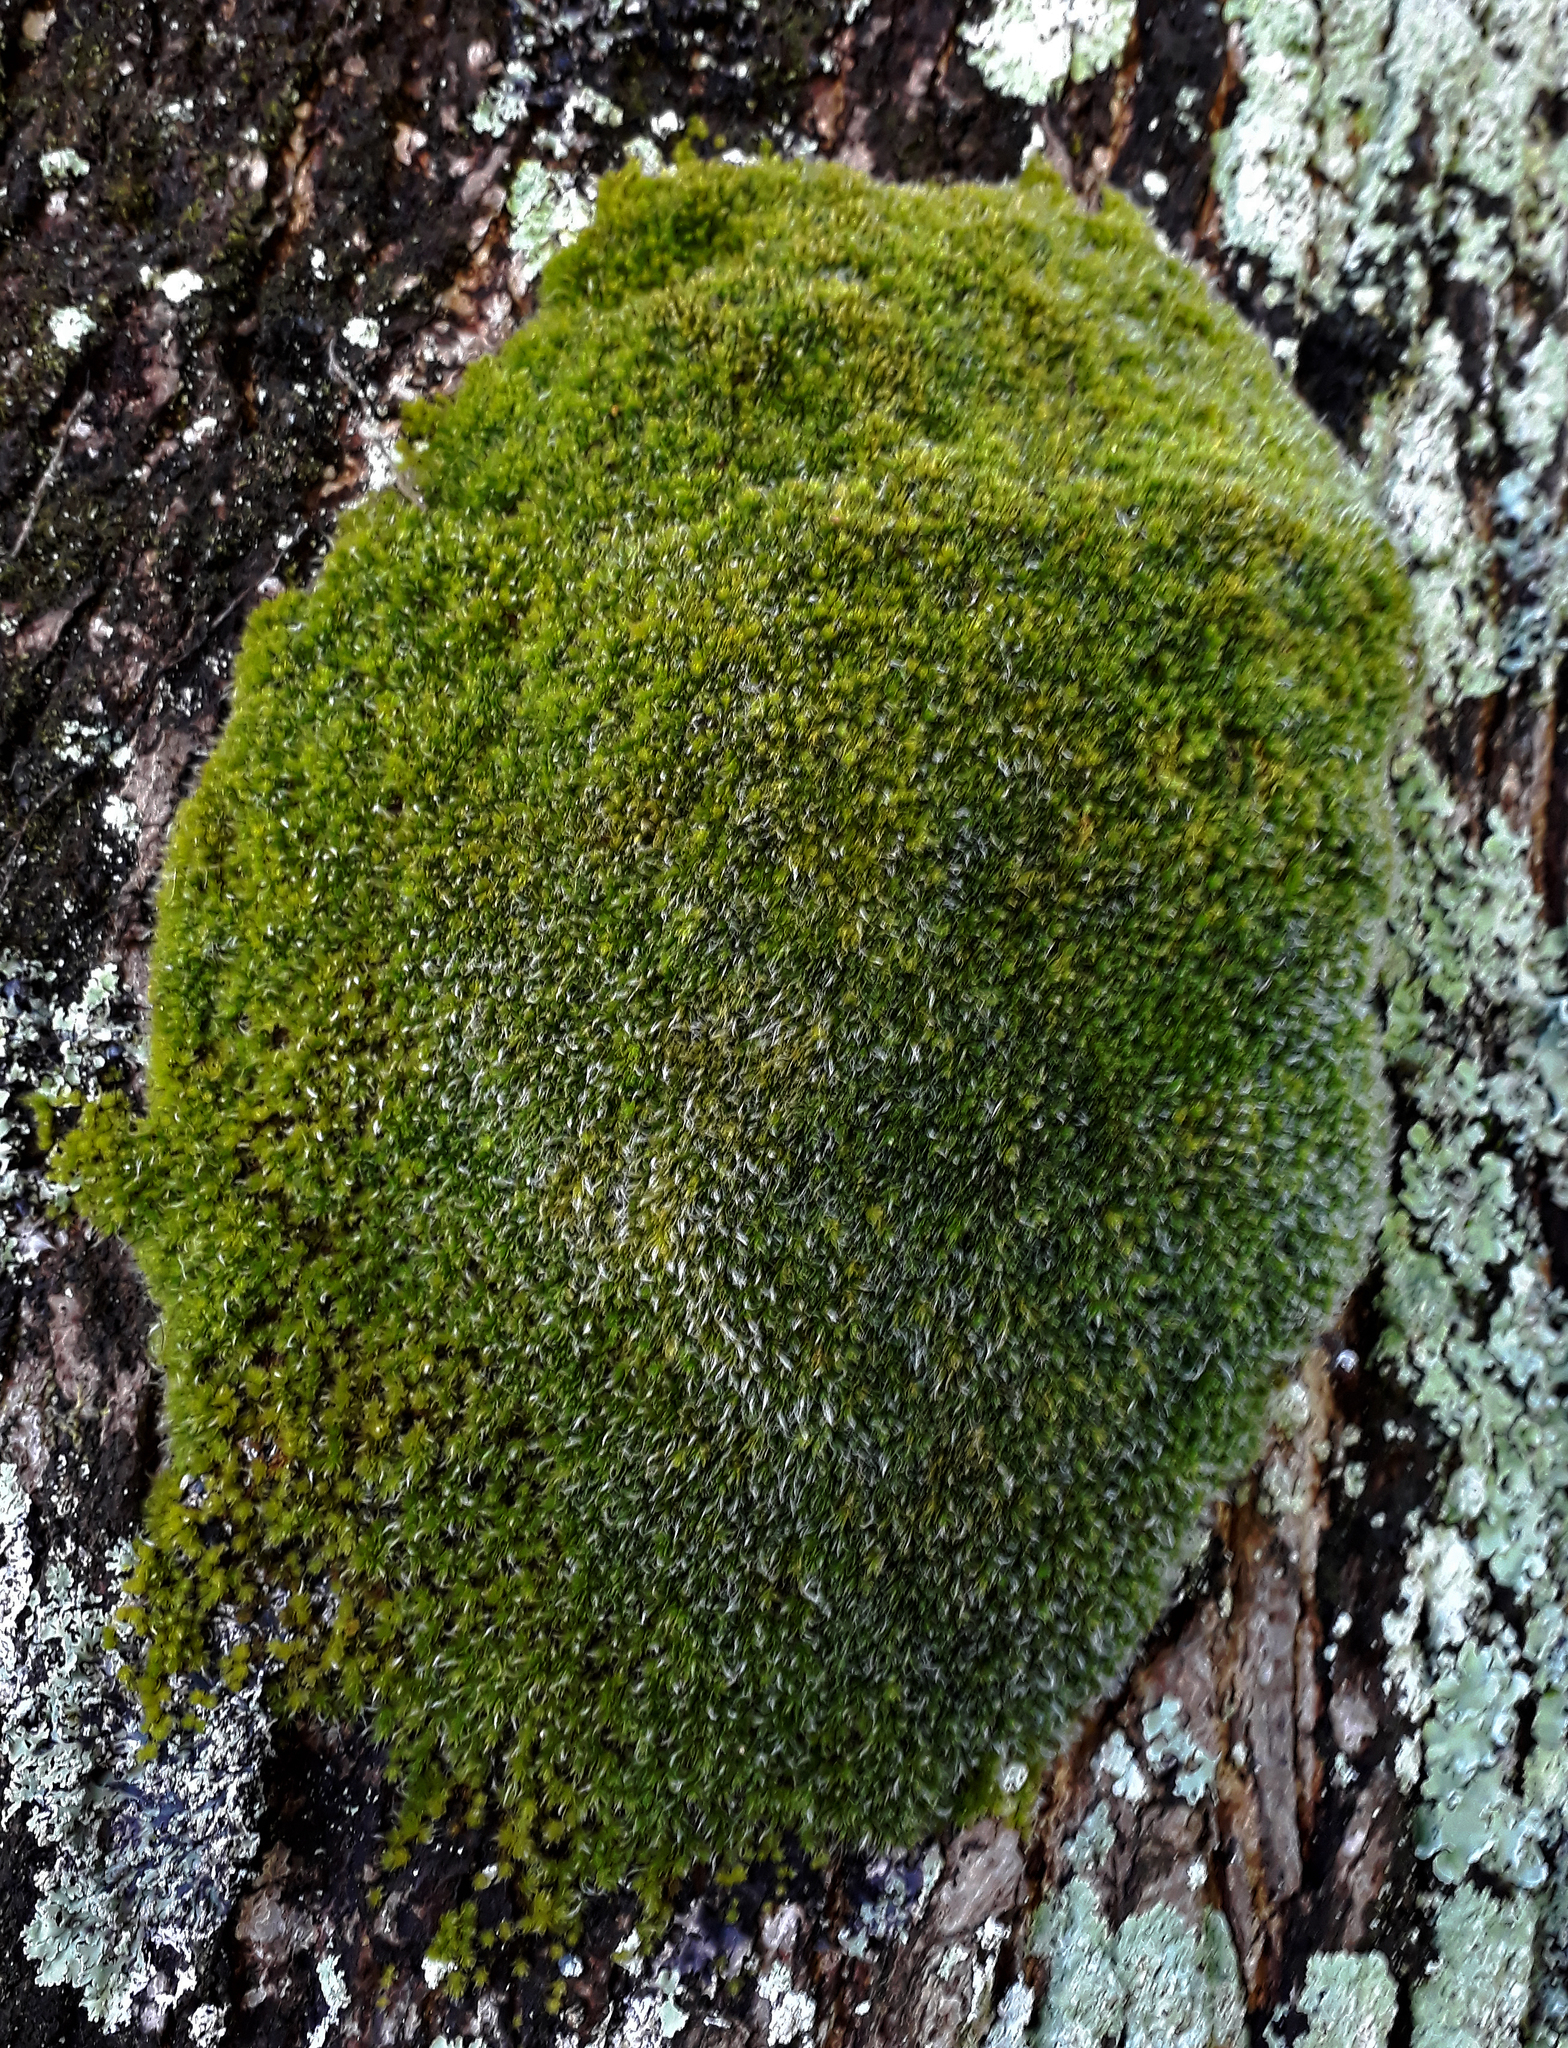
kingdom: Plantae
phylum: Bryophyta
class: Bryopsida
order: Bryales
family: Leptostomataceae
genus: Leptostomum
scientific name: Leptostomum macrocarpon
